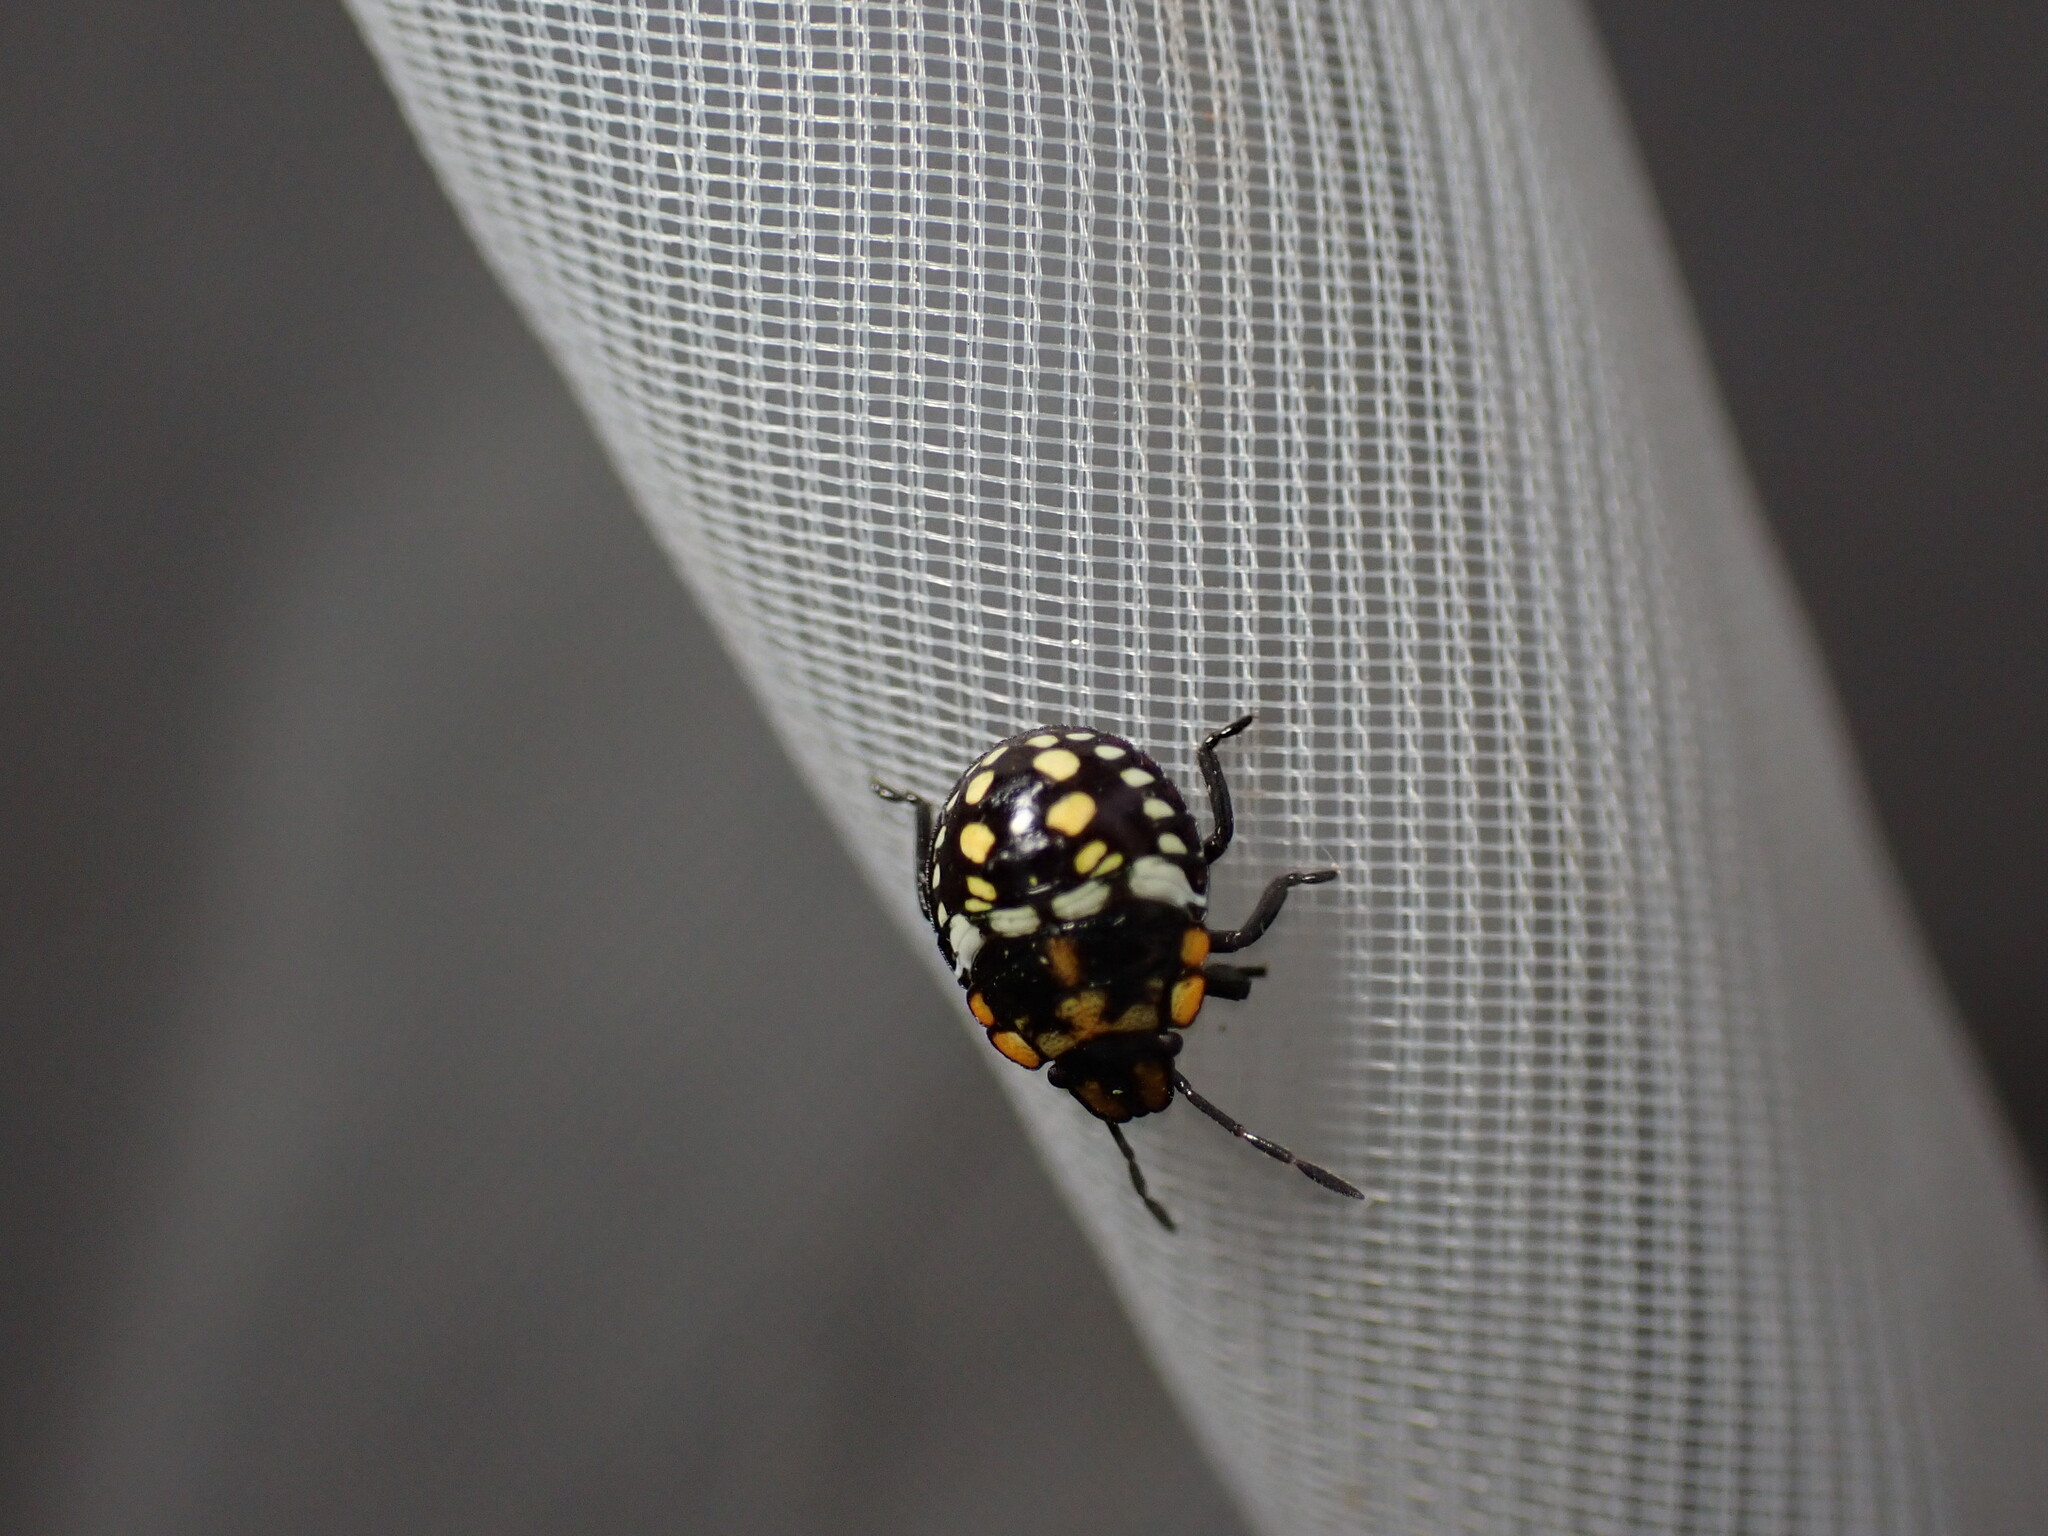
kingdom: Animalia
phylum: Arthropoda
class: Insecta
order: Hemiptera
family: Pentatomidae
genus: Nezara
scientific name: Nezara viridula
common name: Southern green stink bug
